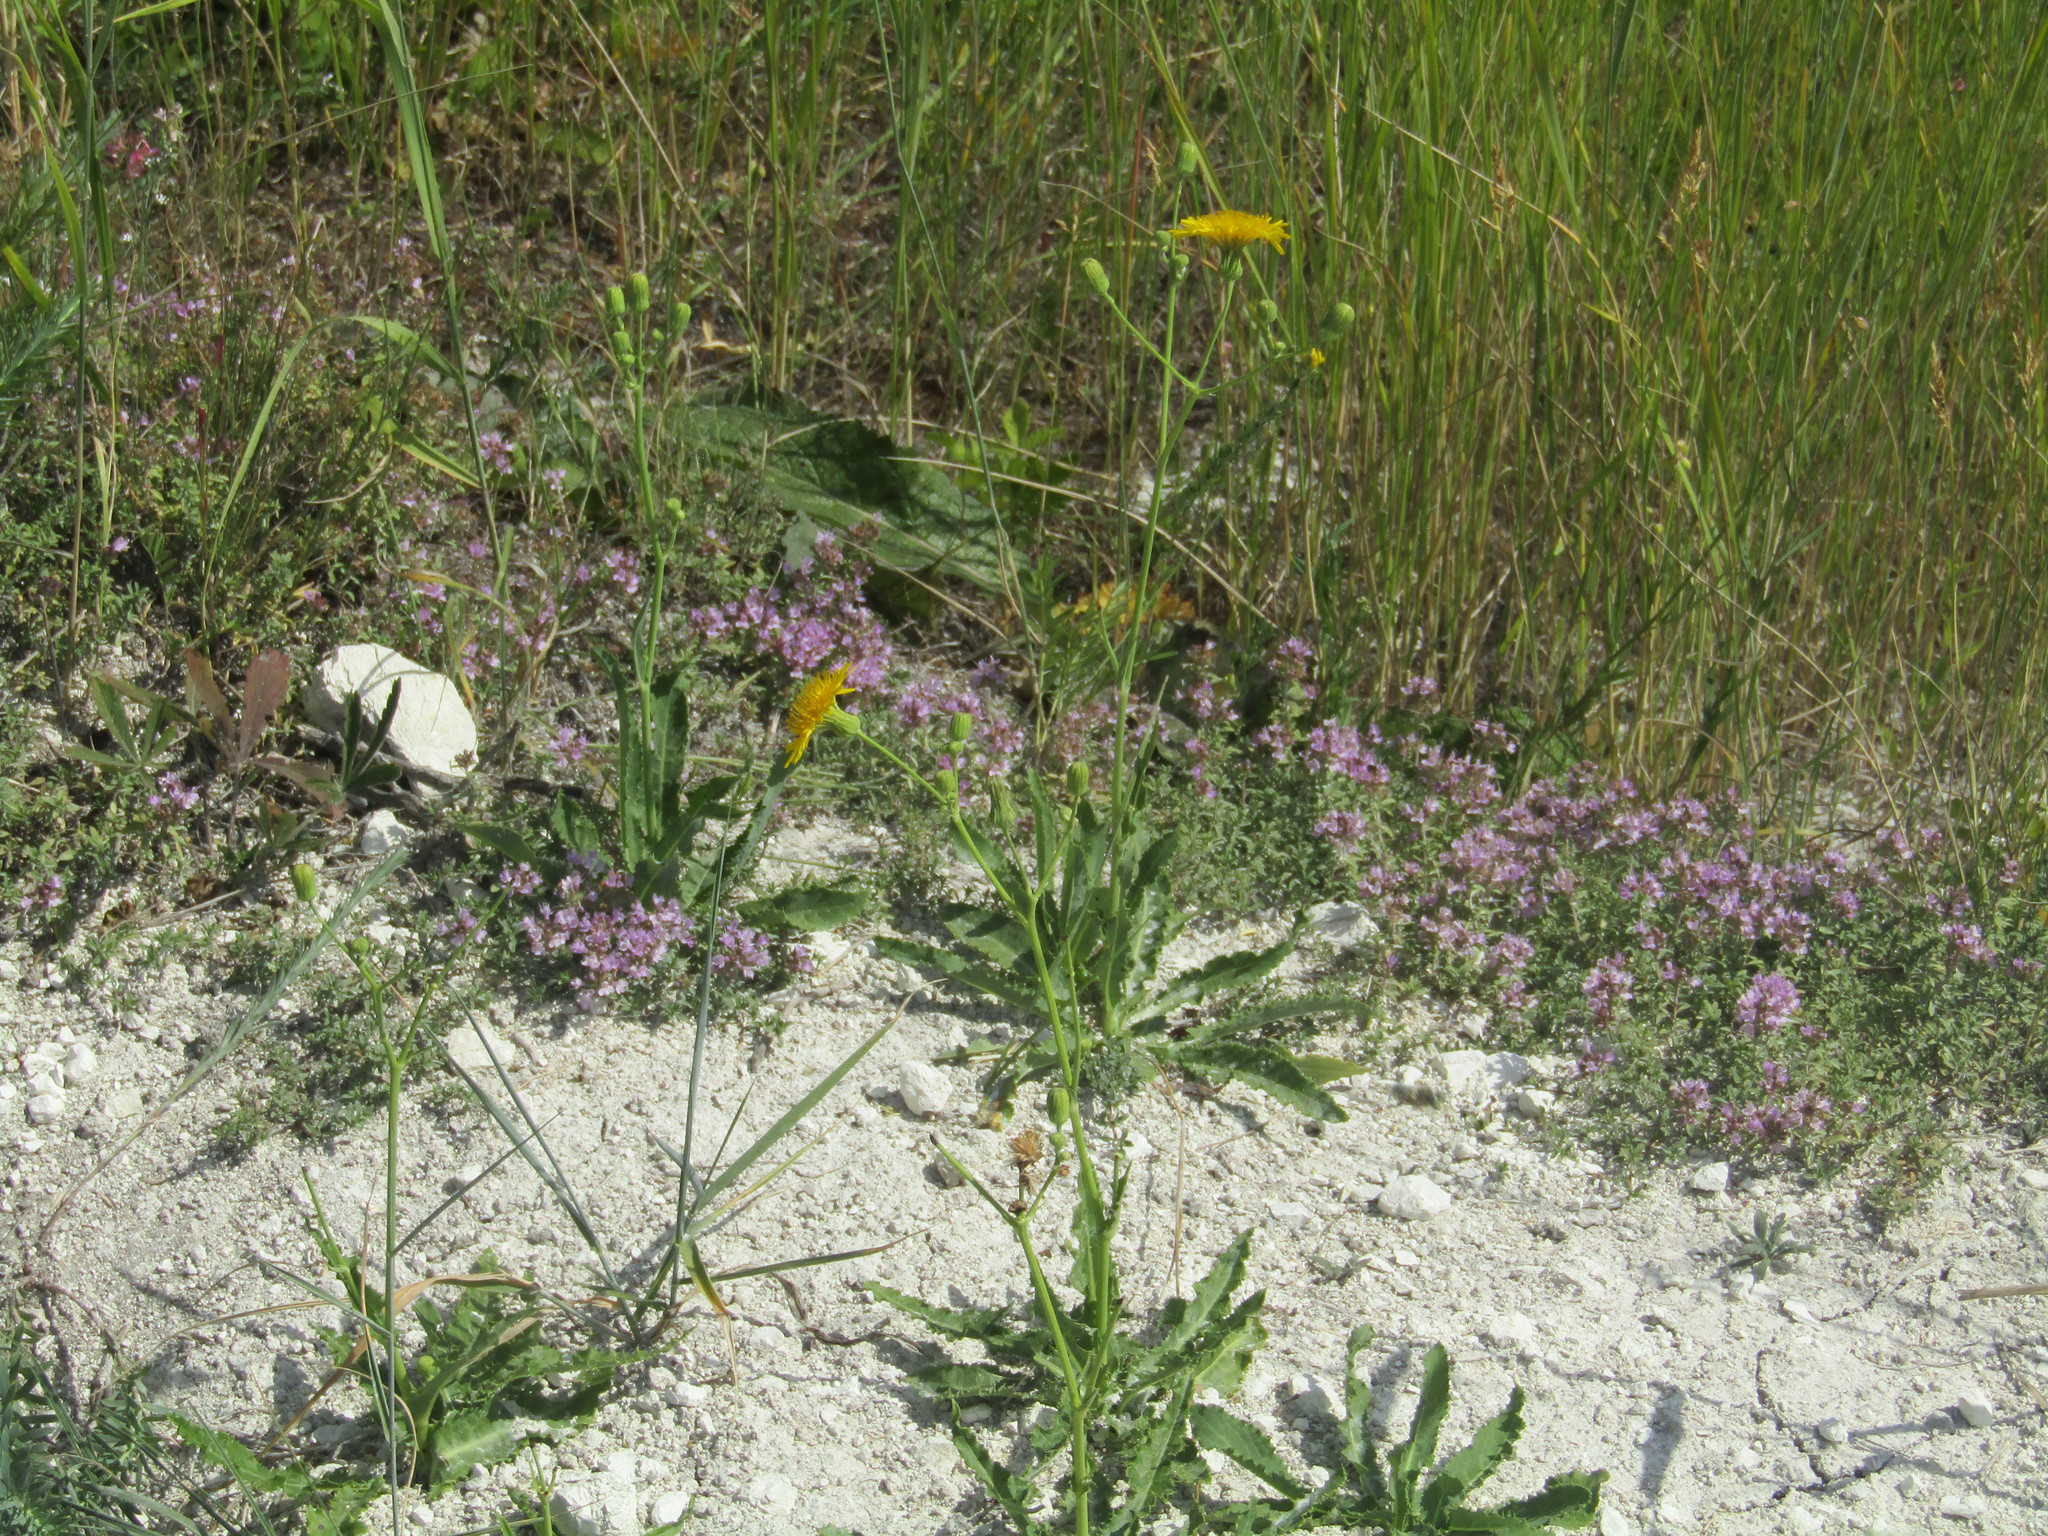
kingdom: Plantae
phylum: Tracheophyta
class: Magnoliopsida
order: Asterales
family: Asteraceae
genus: Sonchus
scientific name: Sonchus arvensis
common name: Perennial sow-thistle
